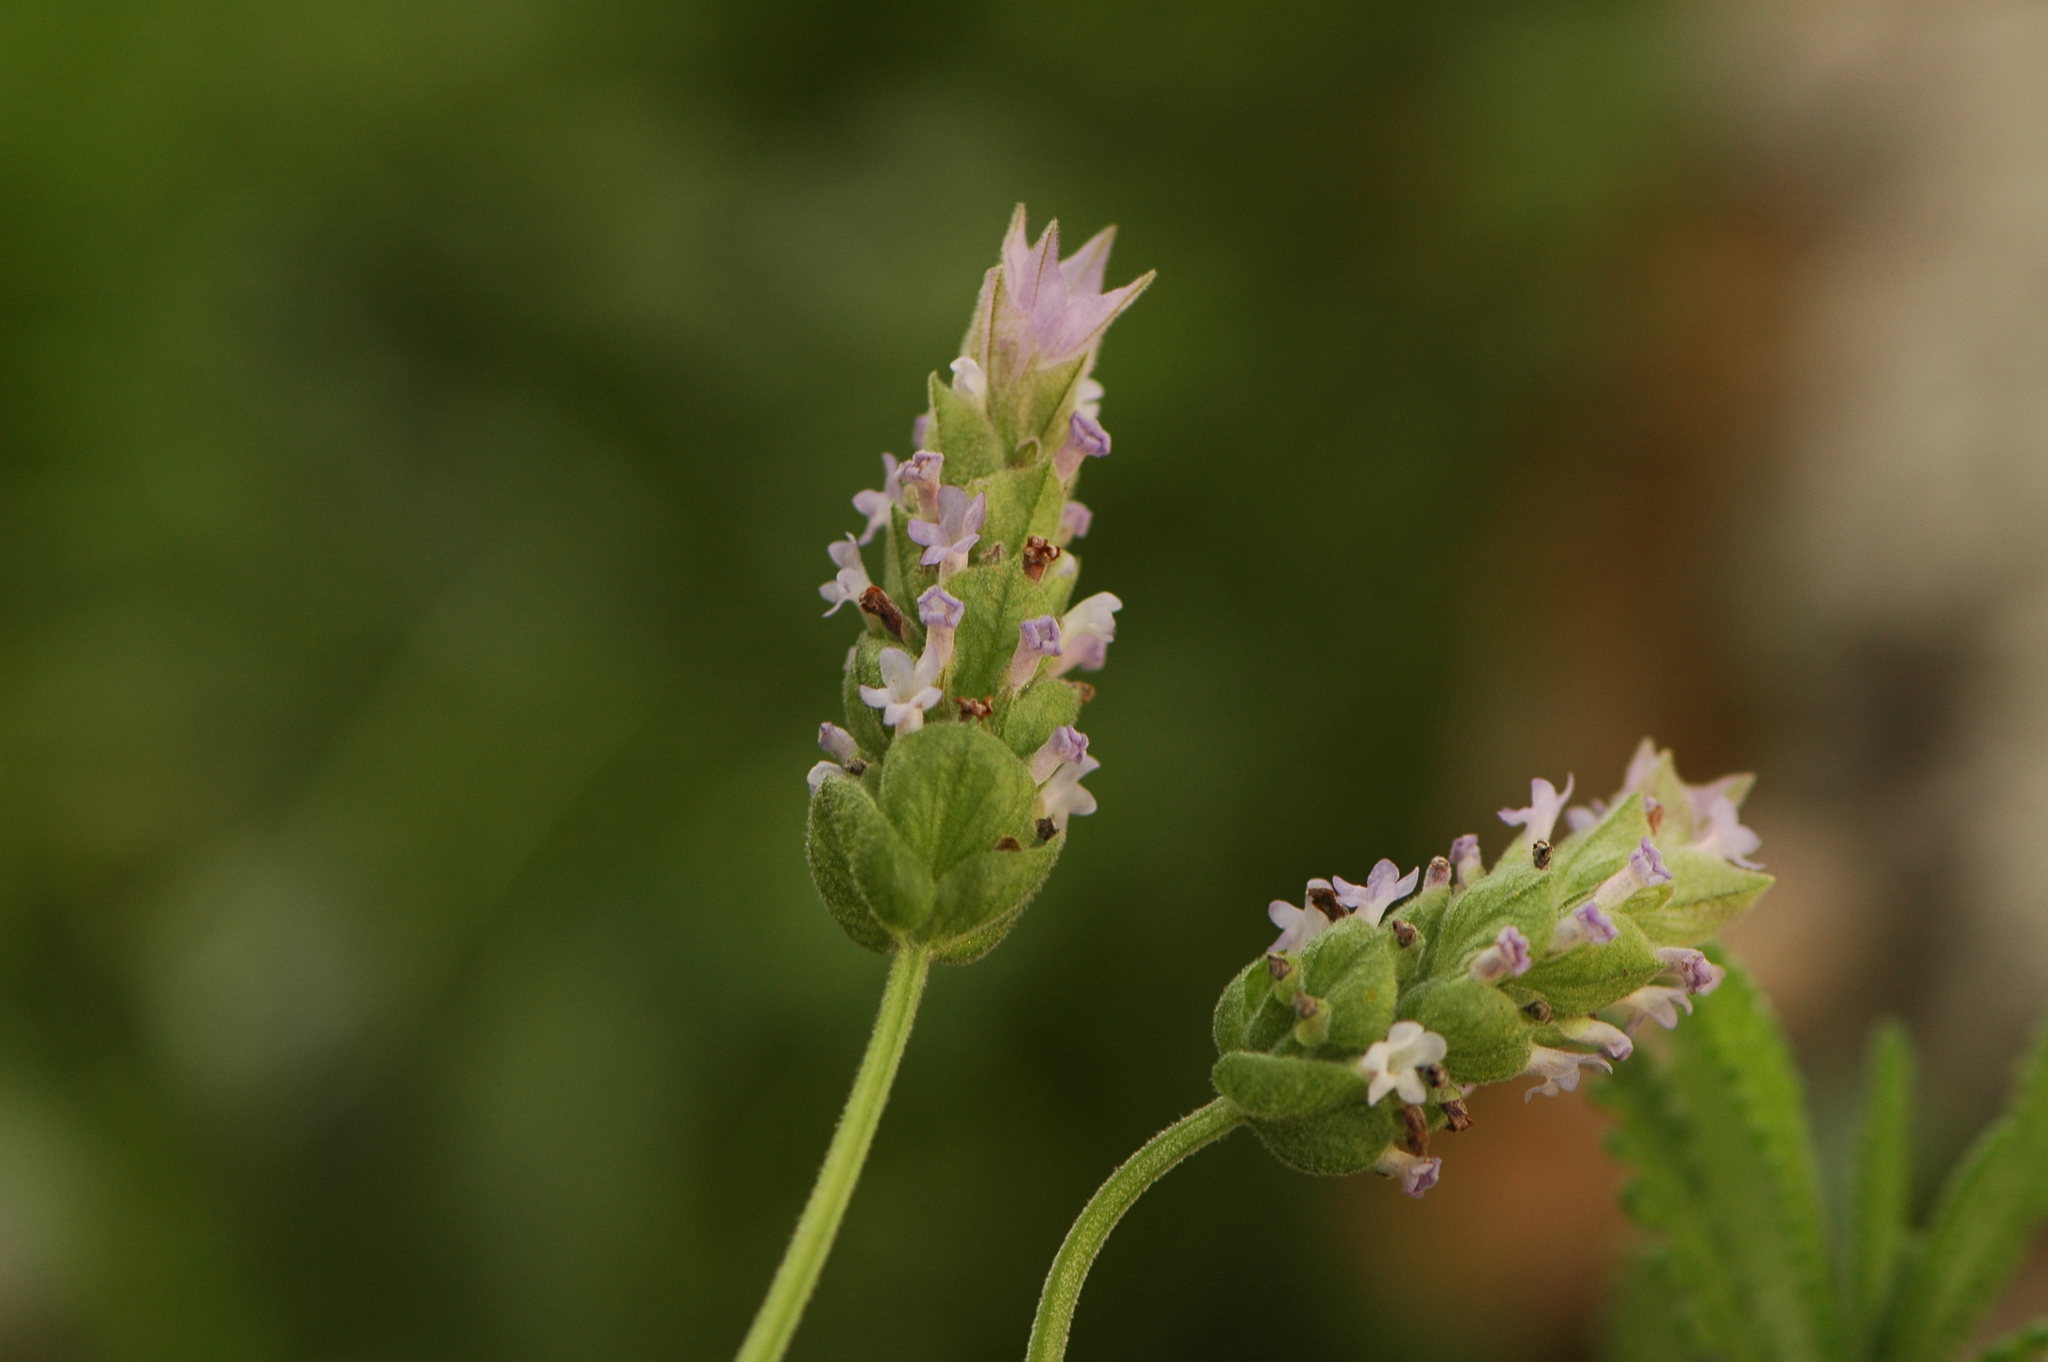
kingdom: Plantae
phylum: Tracheophyta
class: Magnoliopsida
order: Lamiales
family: Lamiaceae
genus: Lavandula
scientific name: Lavandula dentata
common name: French lavender
